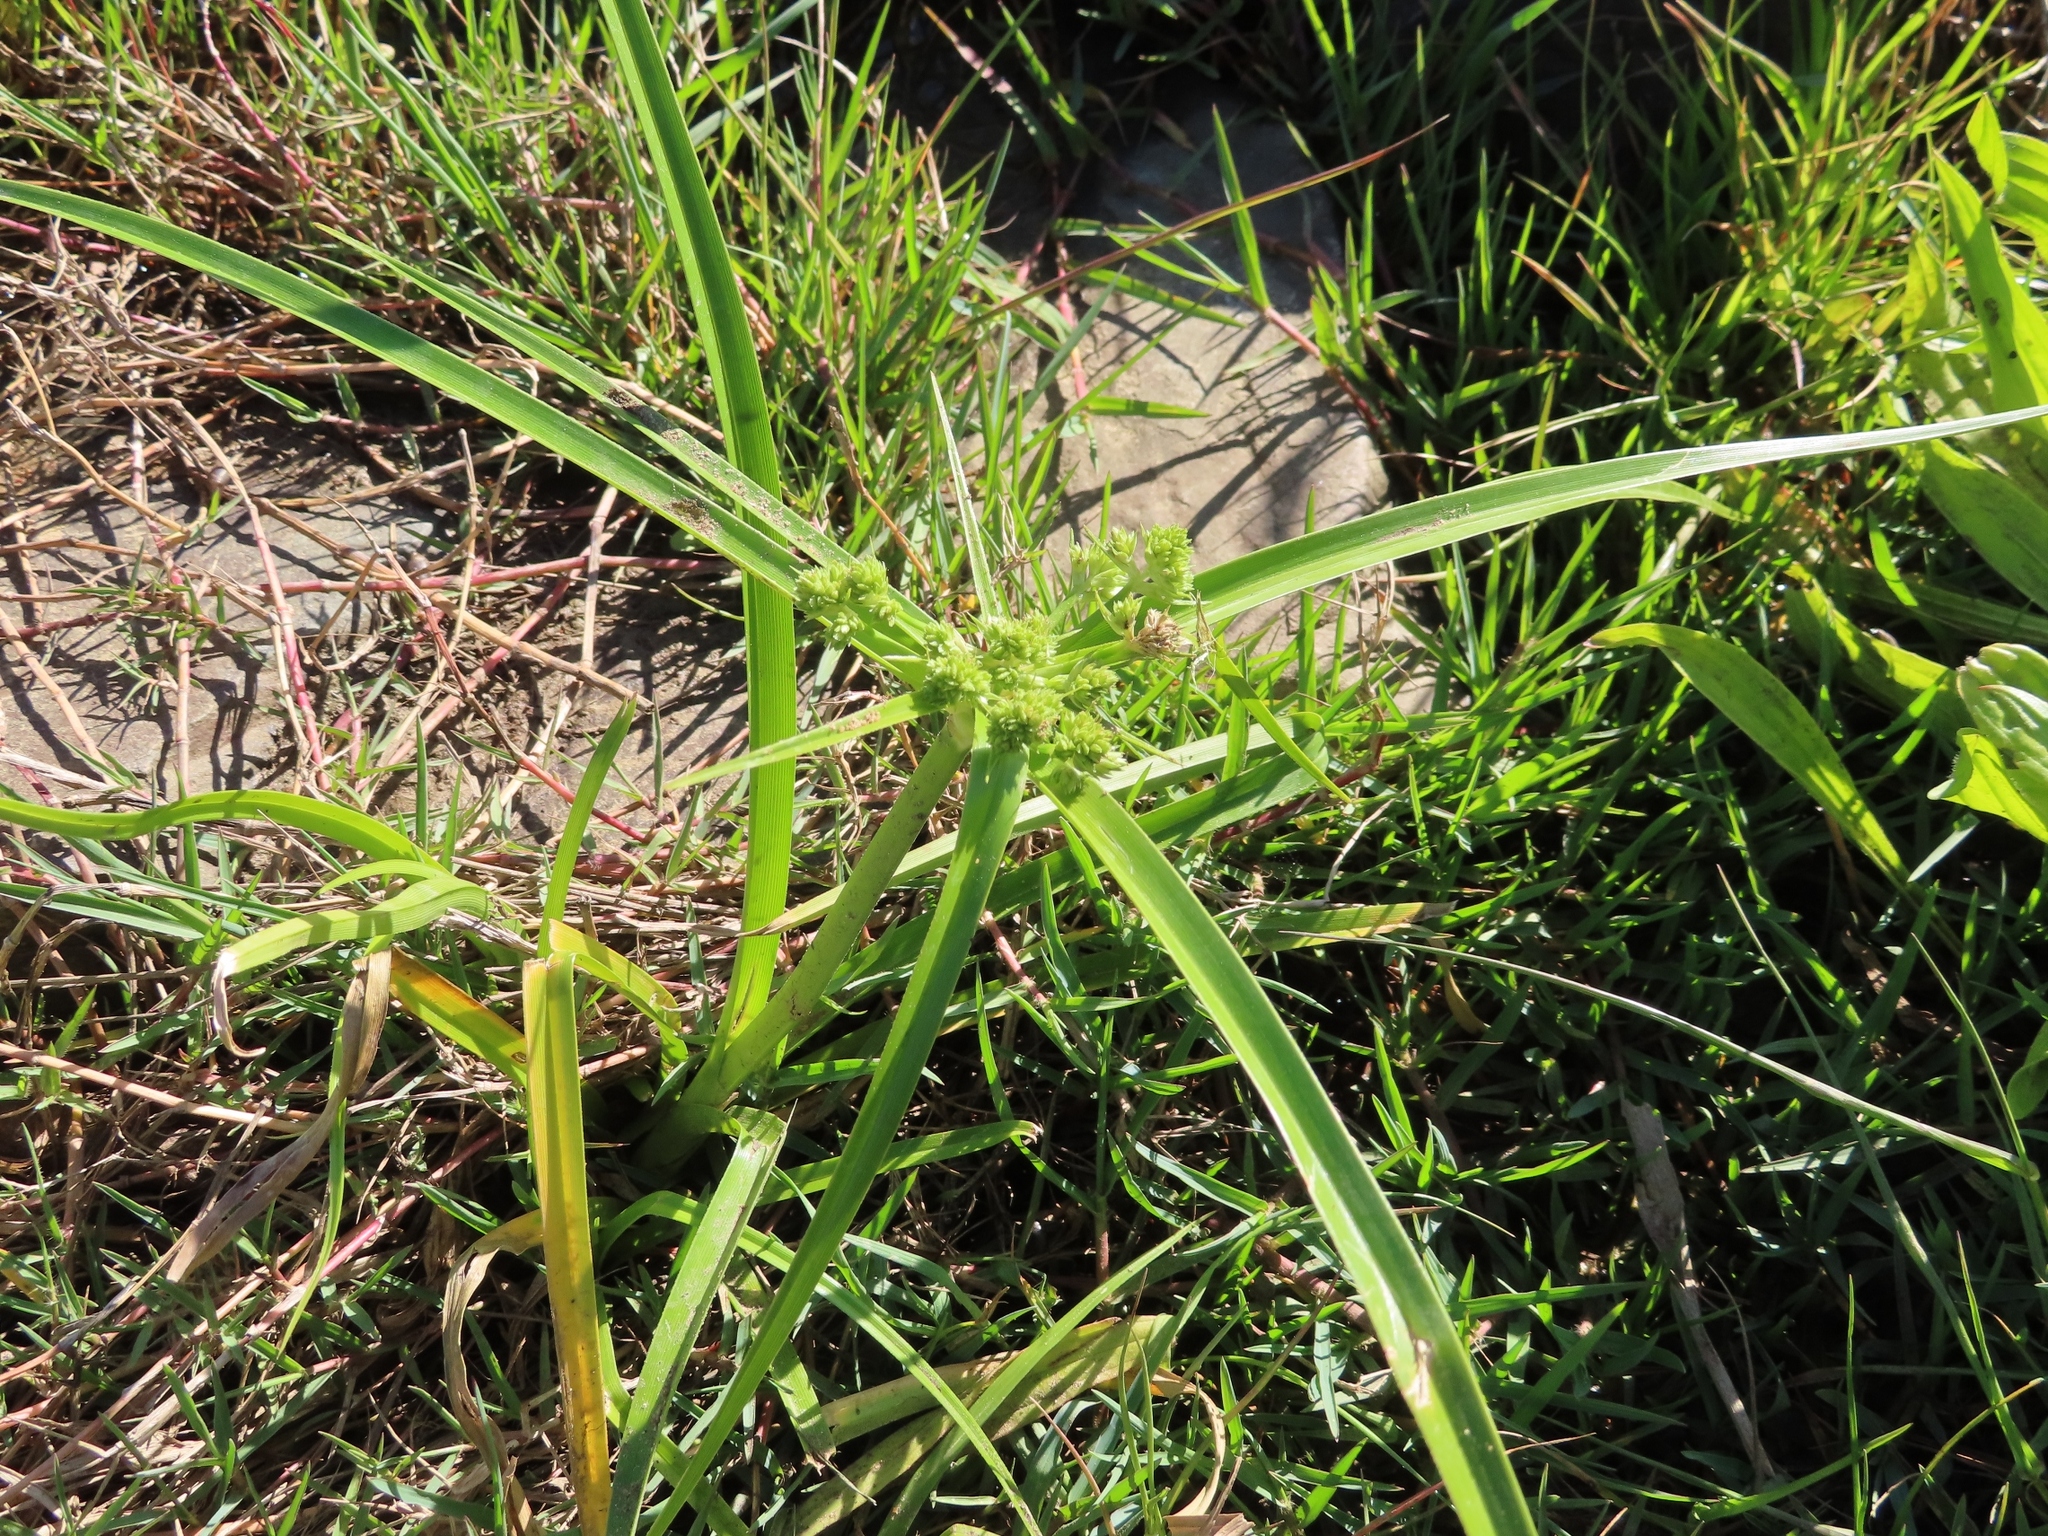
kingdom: Plantae
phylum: Tracheophyta
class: Liliopsida
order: Poales
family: Cyperaceae
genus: Cyperus
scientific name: Cyperus eragrostis
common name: Tall flatsedge
